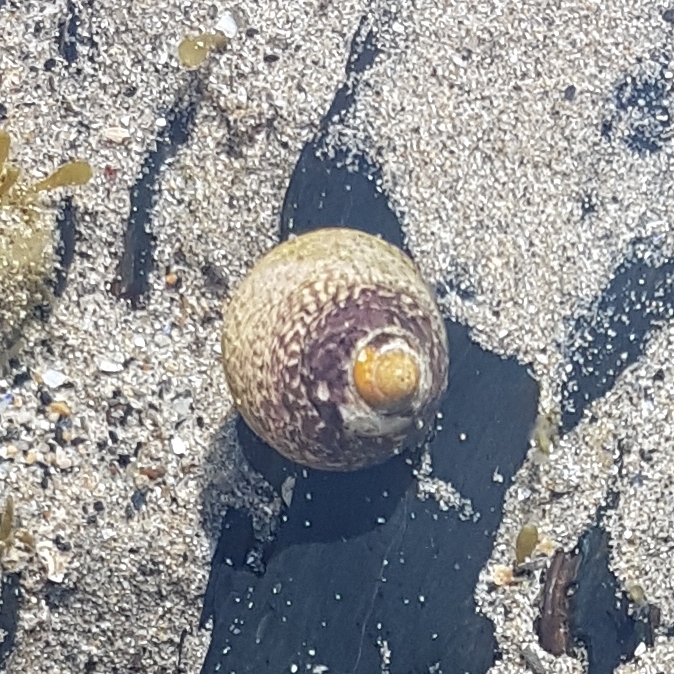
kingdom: Animalia
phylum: Mollusca
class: Gastropoda
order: Trochida
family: Trochidae
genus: Phorcus
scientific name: Phorcus lineatus
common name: Toothed top shell
